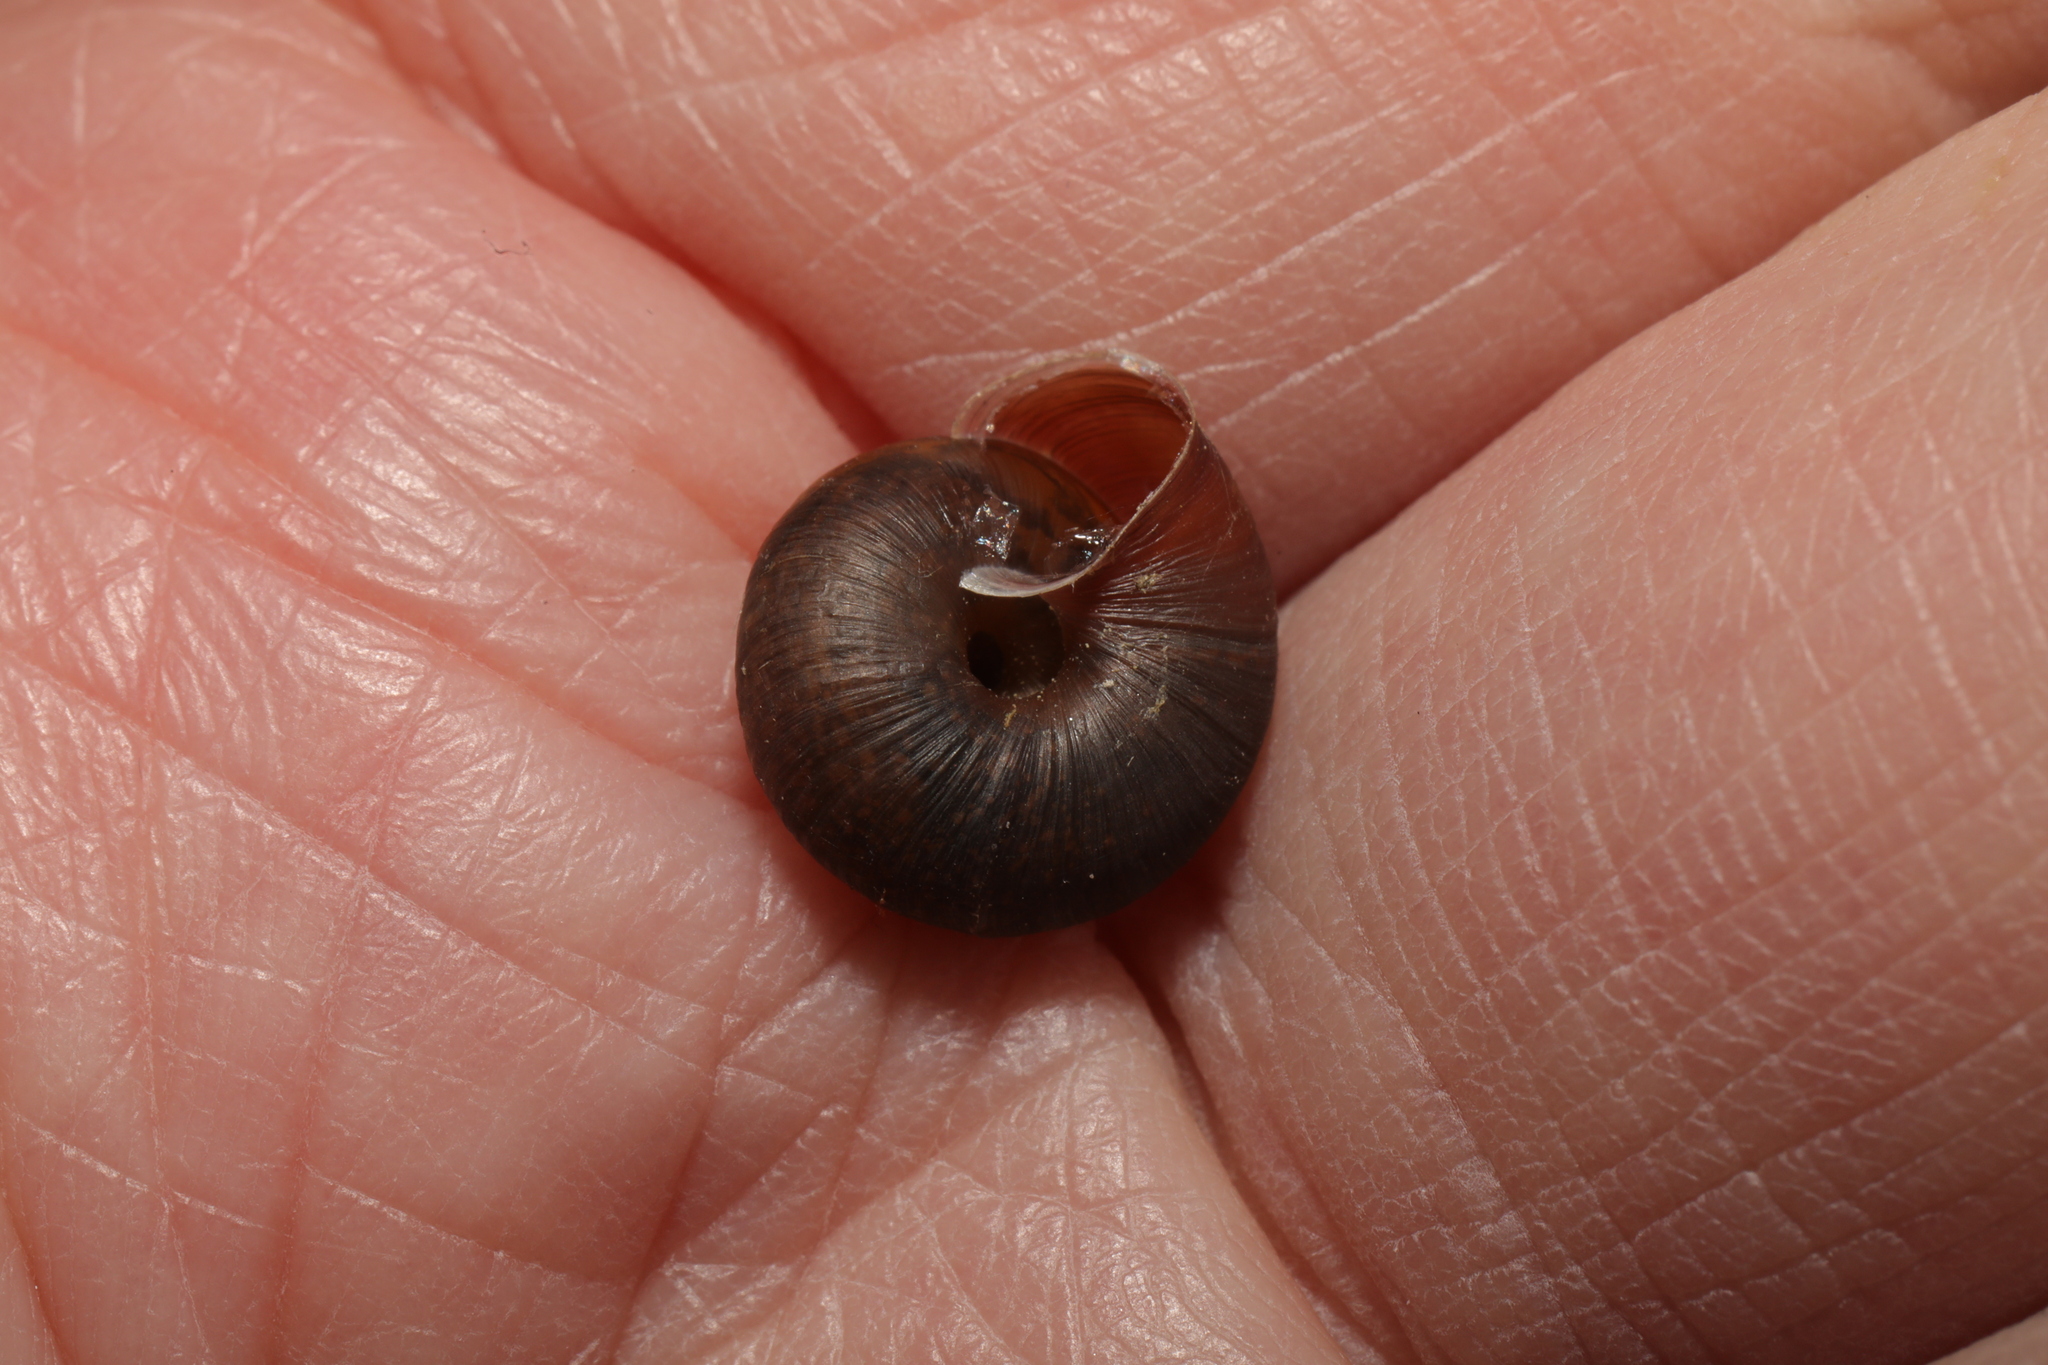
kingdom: Animalia
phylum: Mollusca
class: Gastropoda
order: Stylommatophora
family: Hygromiidae
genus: Trochulus
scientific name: Trochulus striolatus
